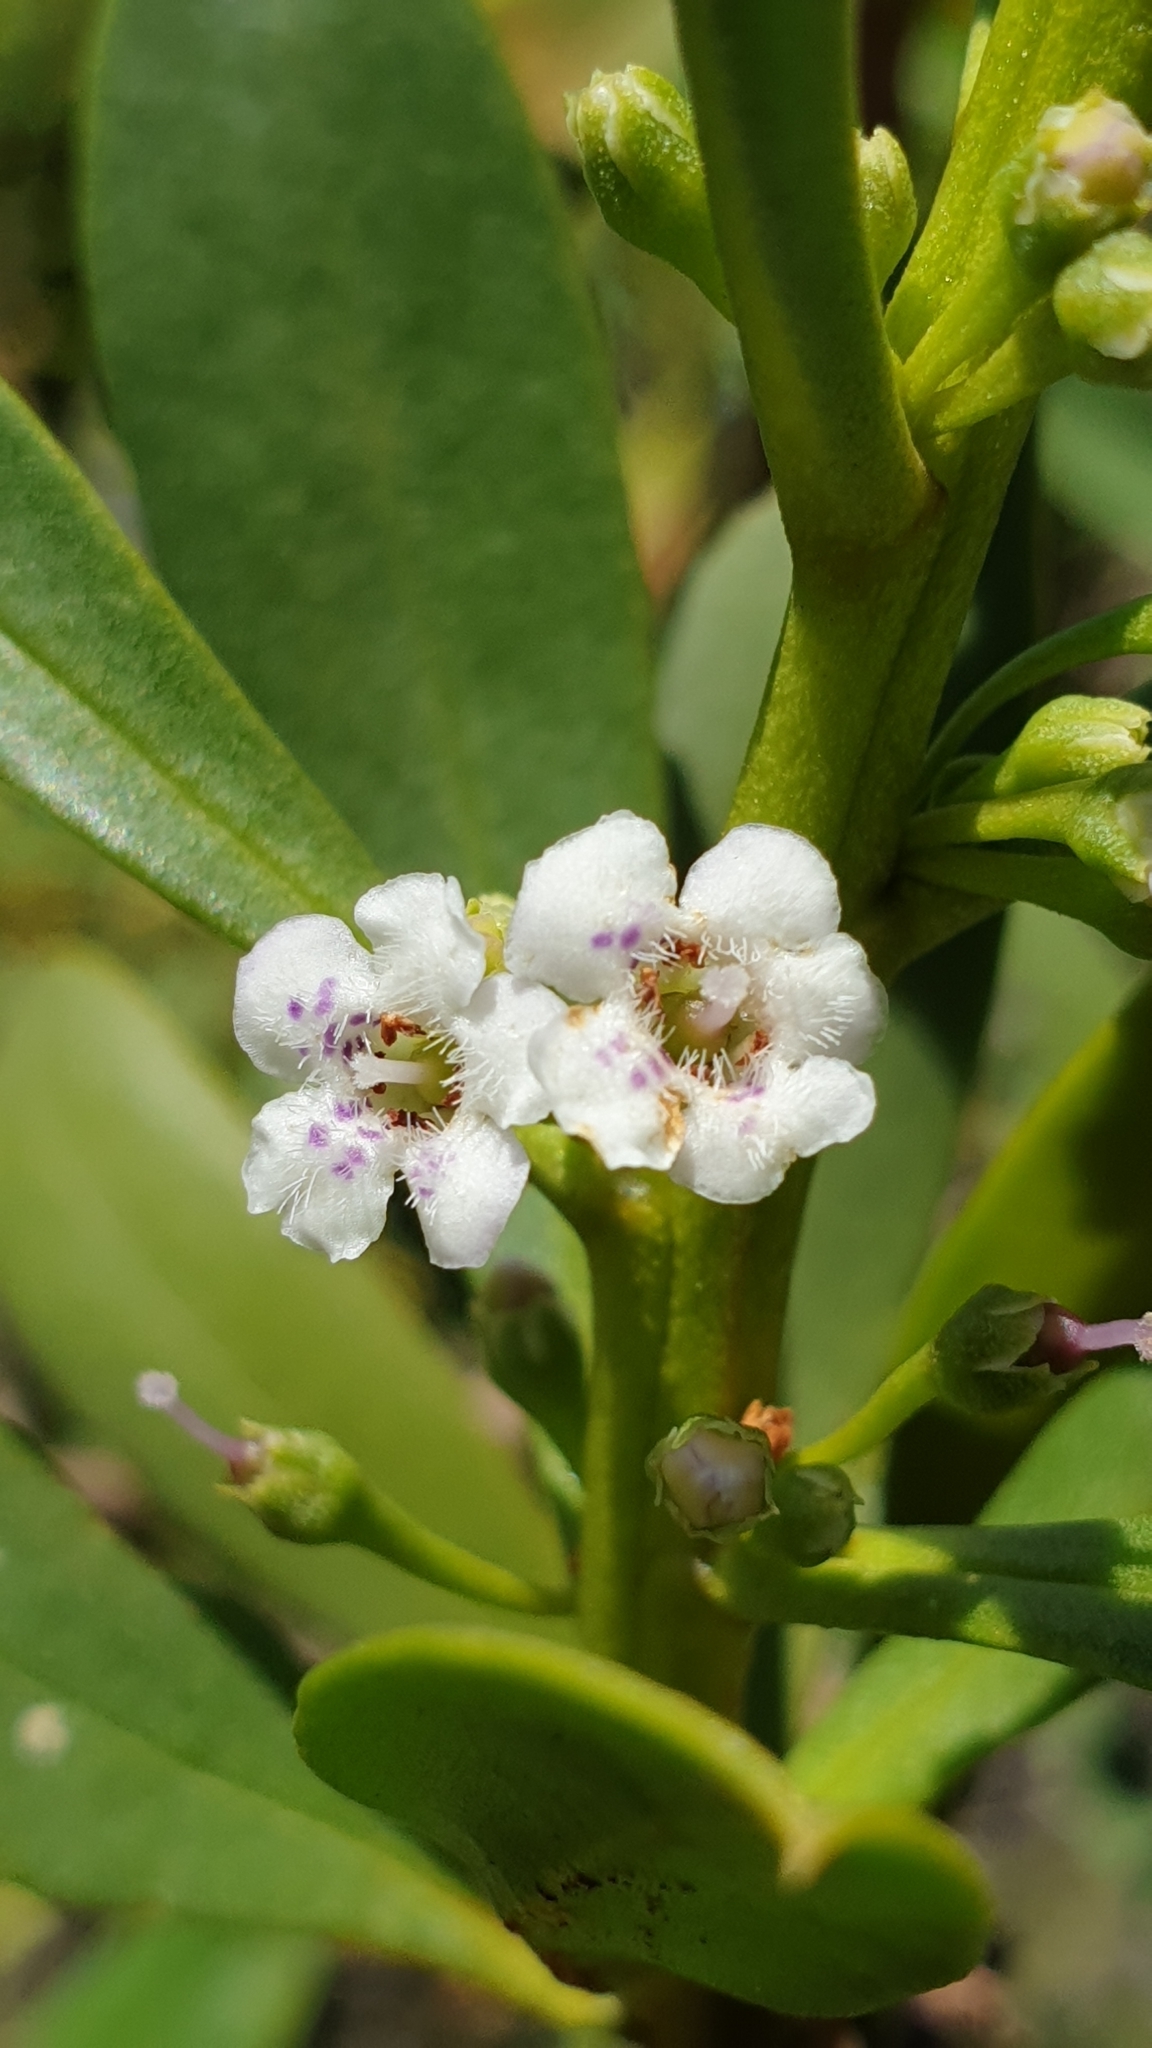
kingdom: Plantae
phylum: Tracheophyta
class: Magnoliopsida
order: Lamiales
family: Scrophulariaceae
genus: Myoporum
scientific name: Myoporum insulare
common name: Common boobialla
